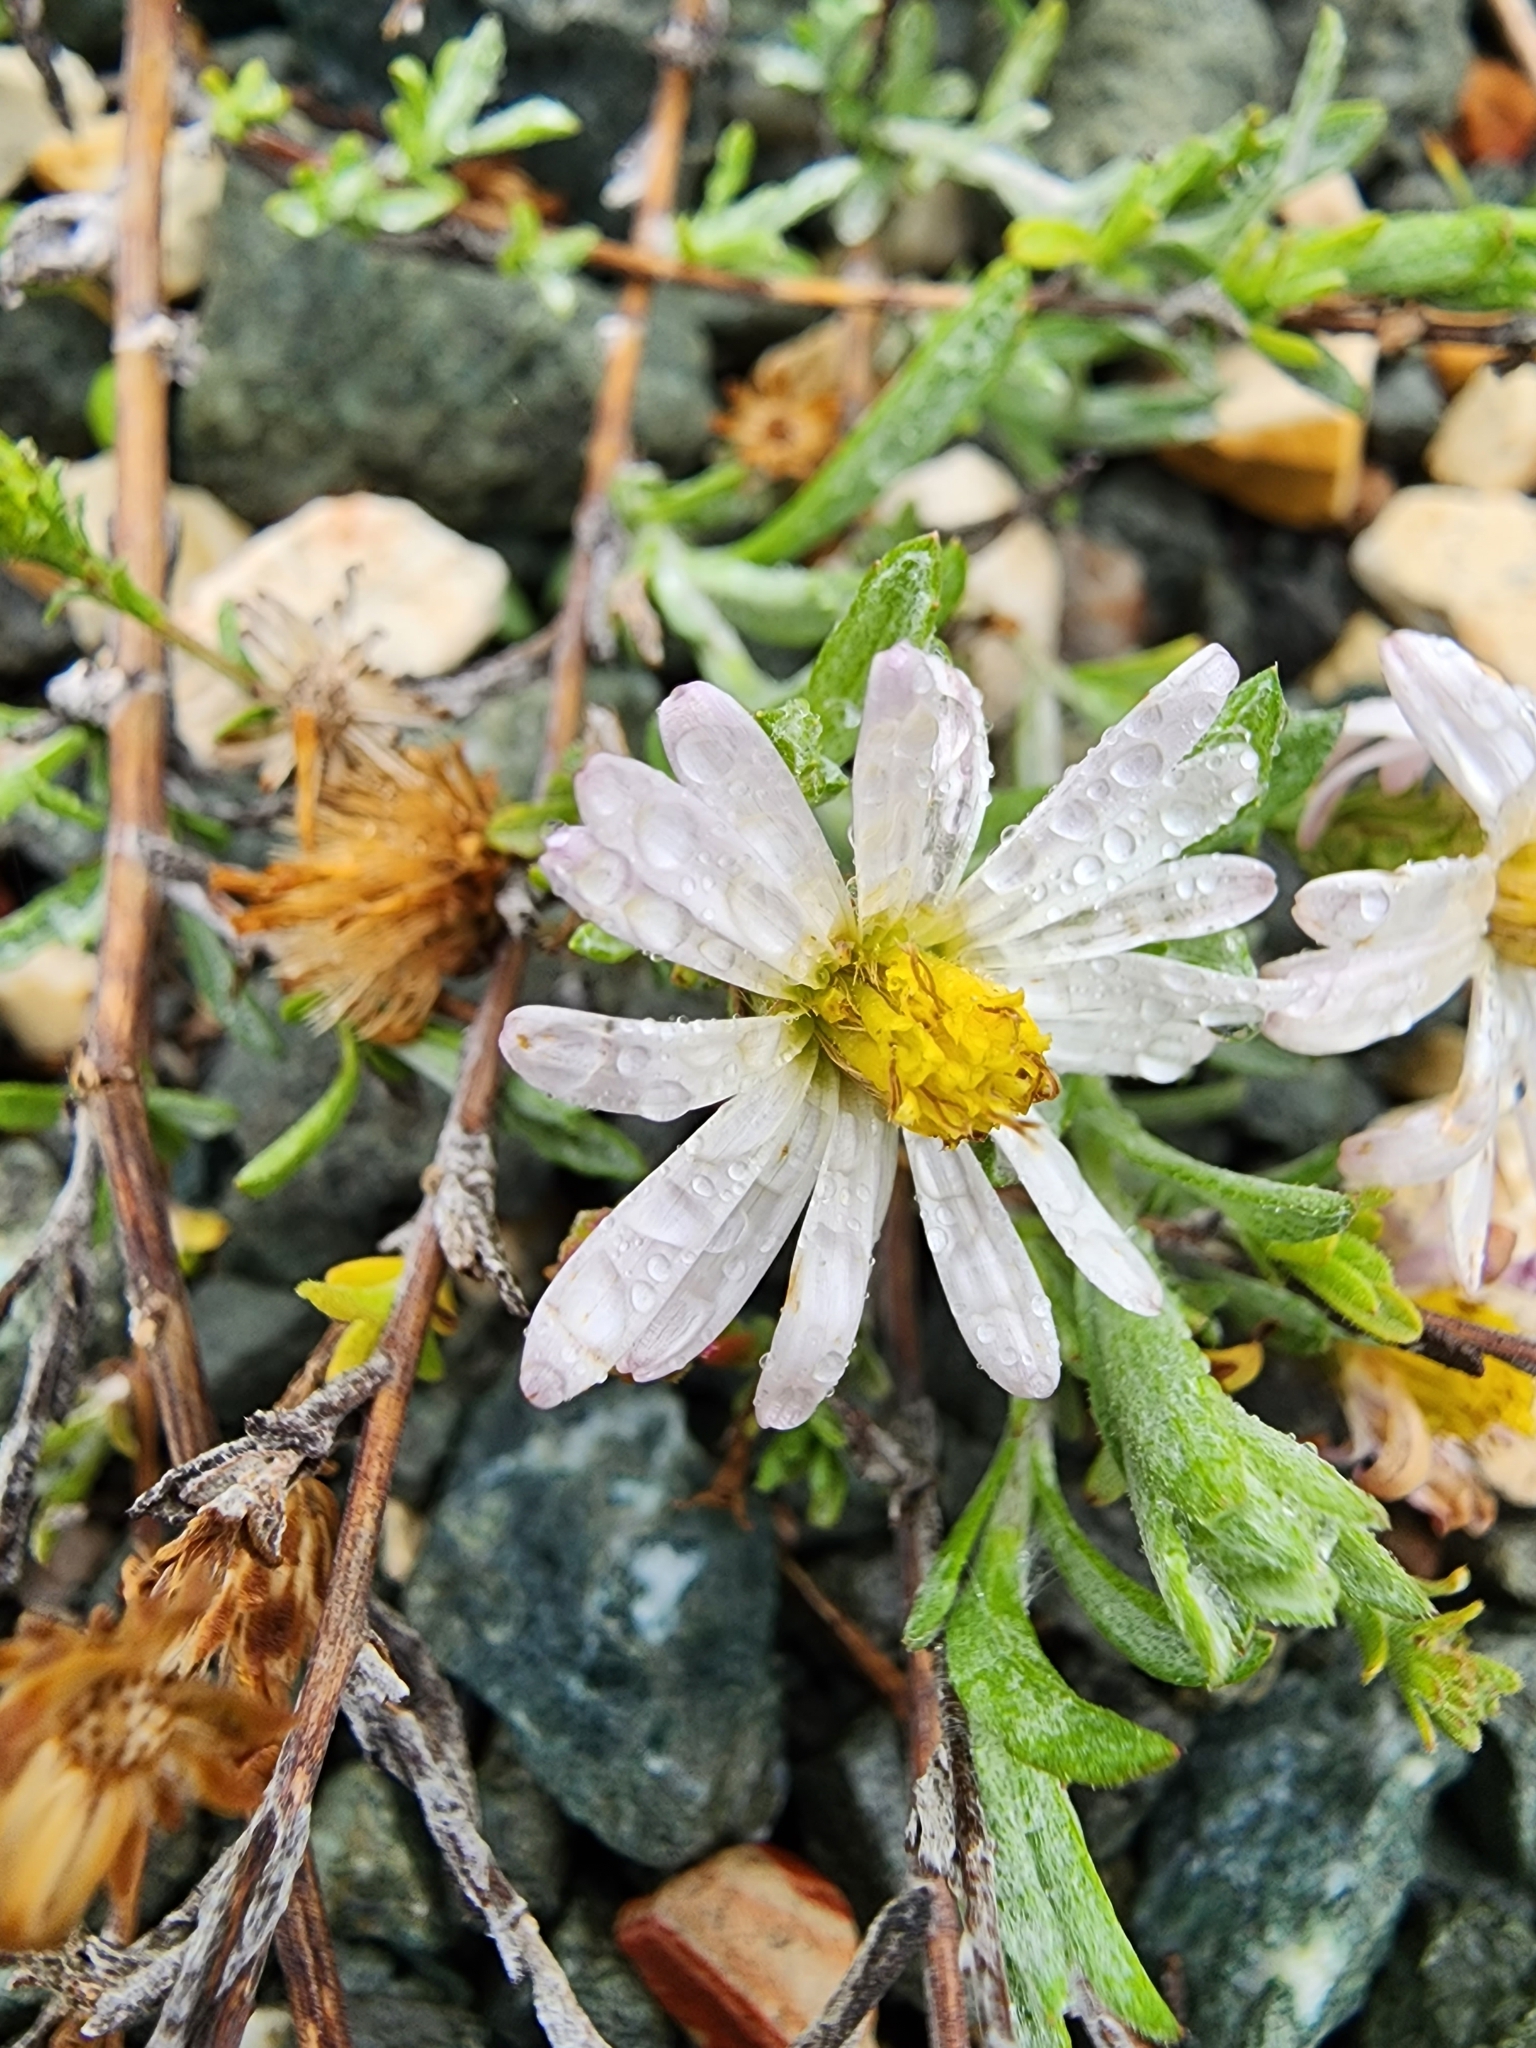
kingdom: Plantae
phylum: Tracheophyta
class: Magnoliopsida
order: Asterales
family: Asteraceae
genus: Corethrogyne
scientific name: Corethrogyne filaginifolia
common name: Sand-aster
